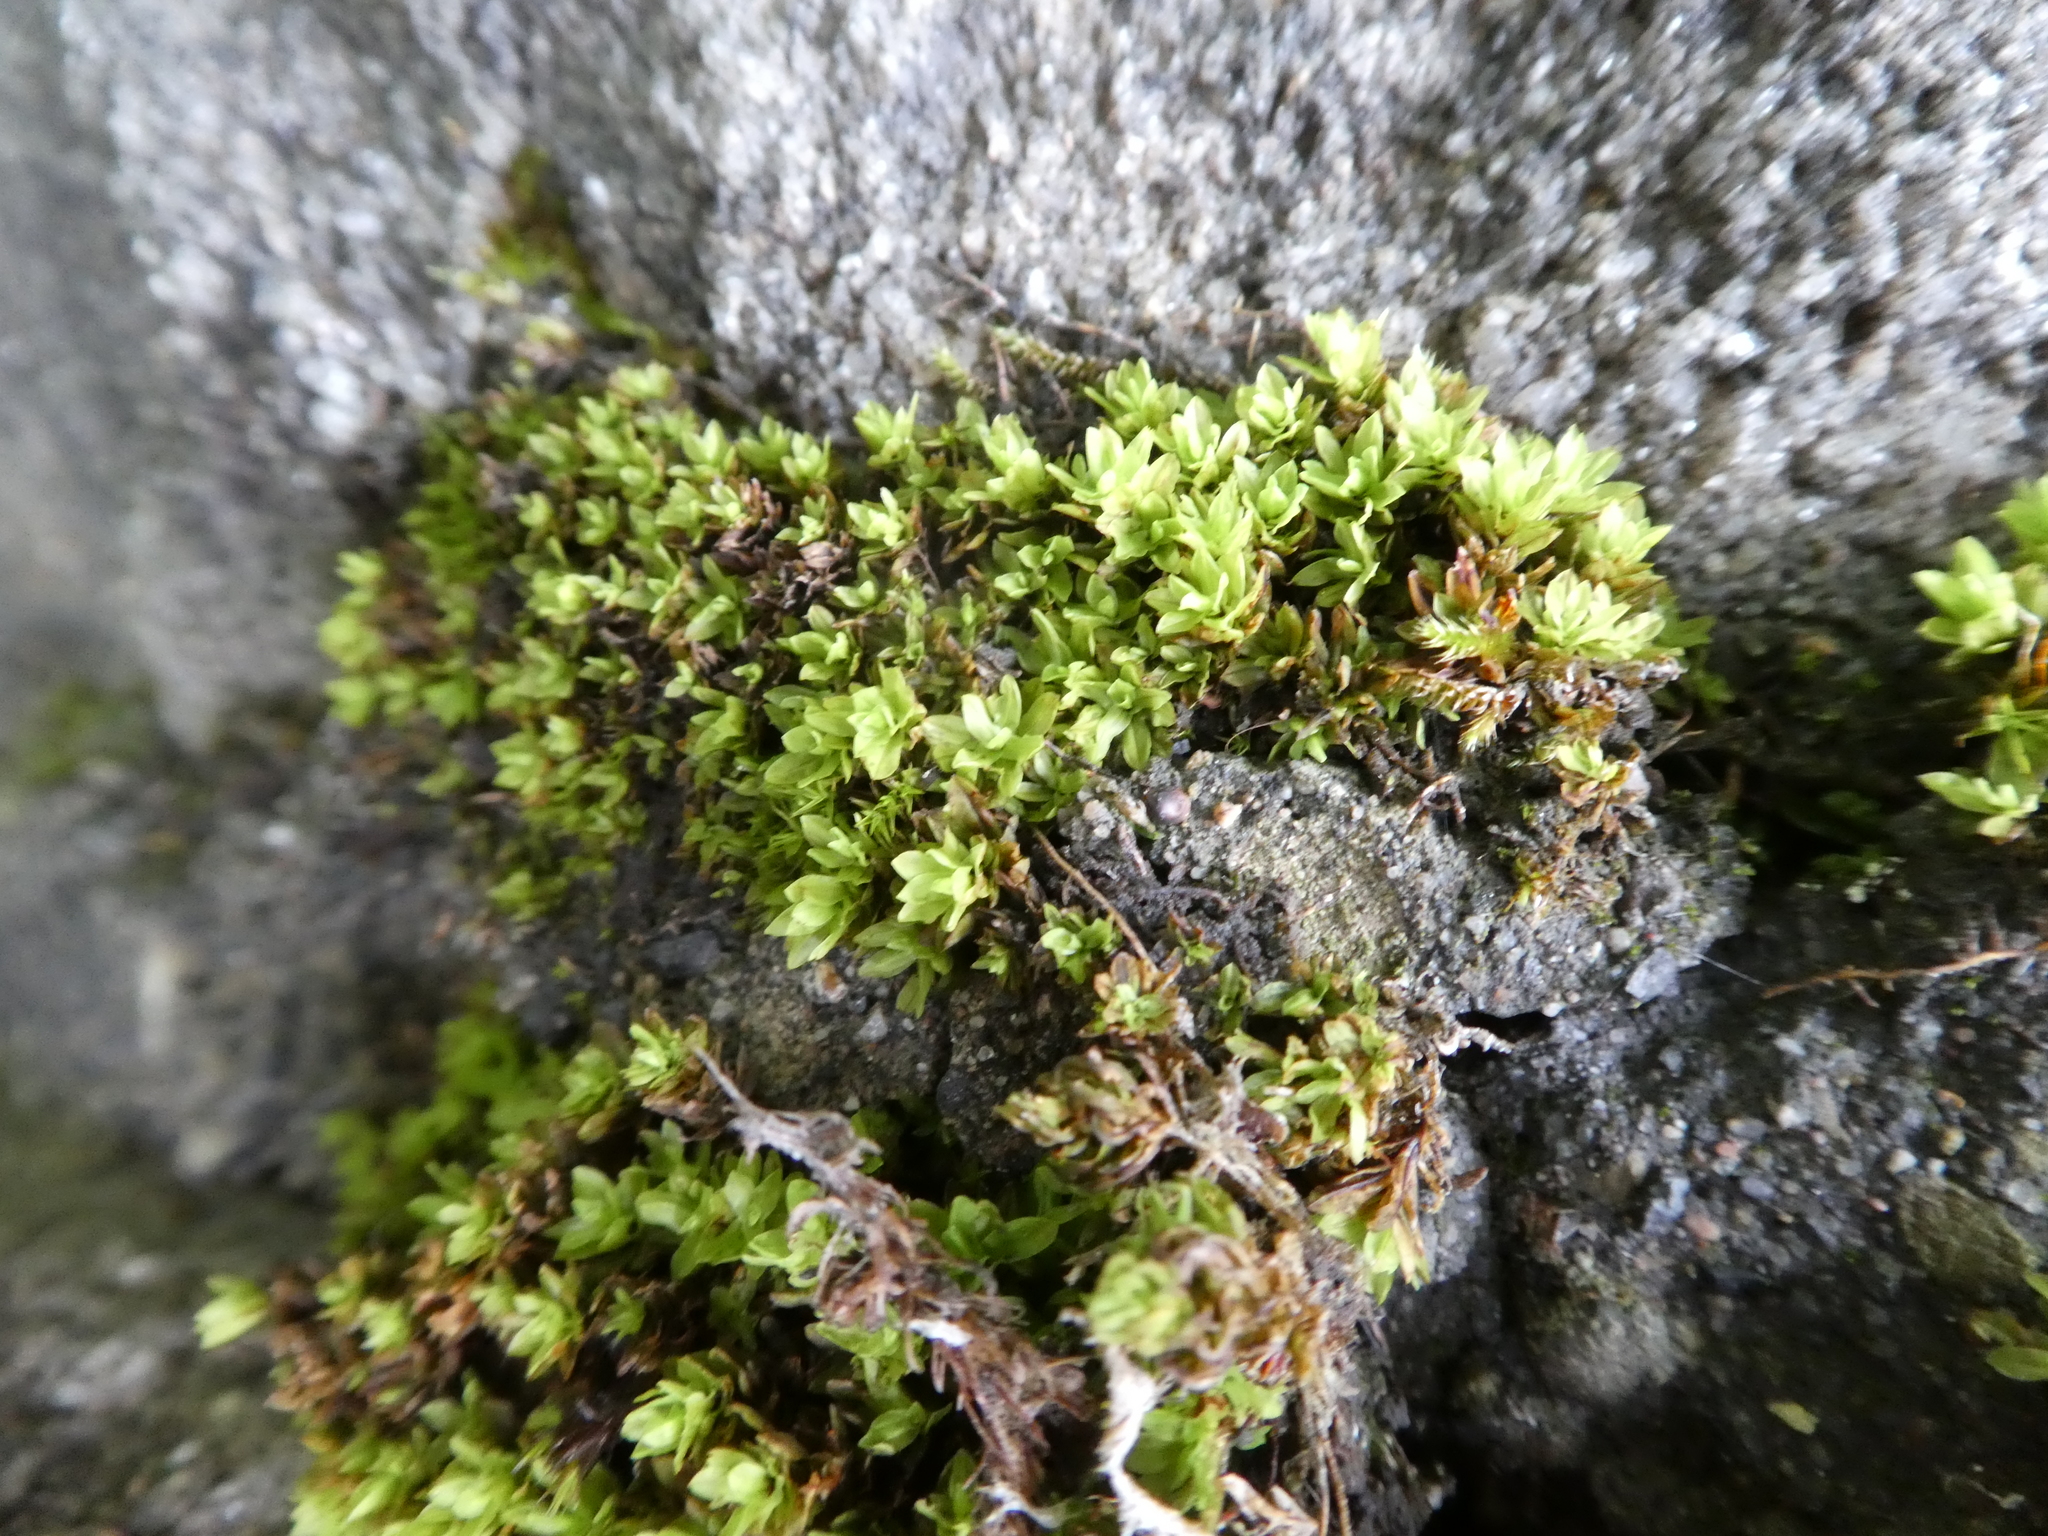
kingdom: Plantae
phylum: Bryophyta
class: Bryopsida
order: Pottiales
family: Pottiaceae
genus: Syntrichia
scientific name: Syntrichia latifolia
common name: Water screw-moss
